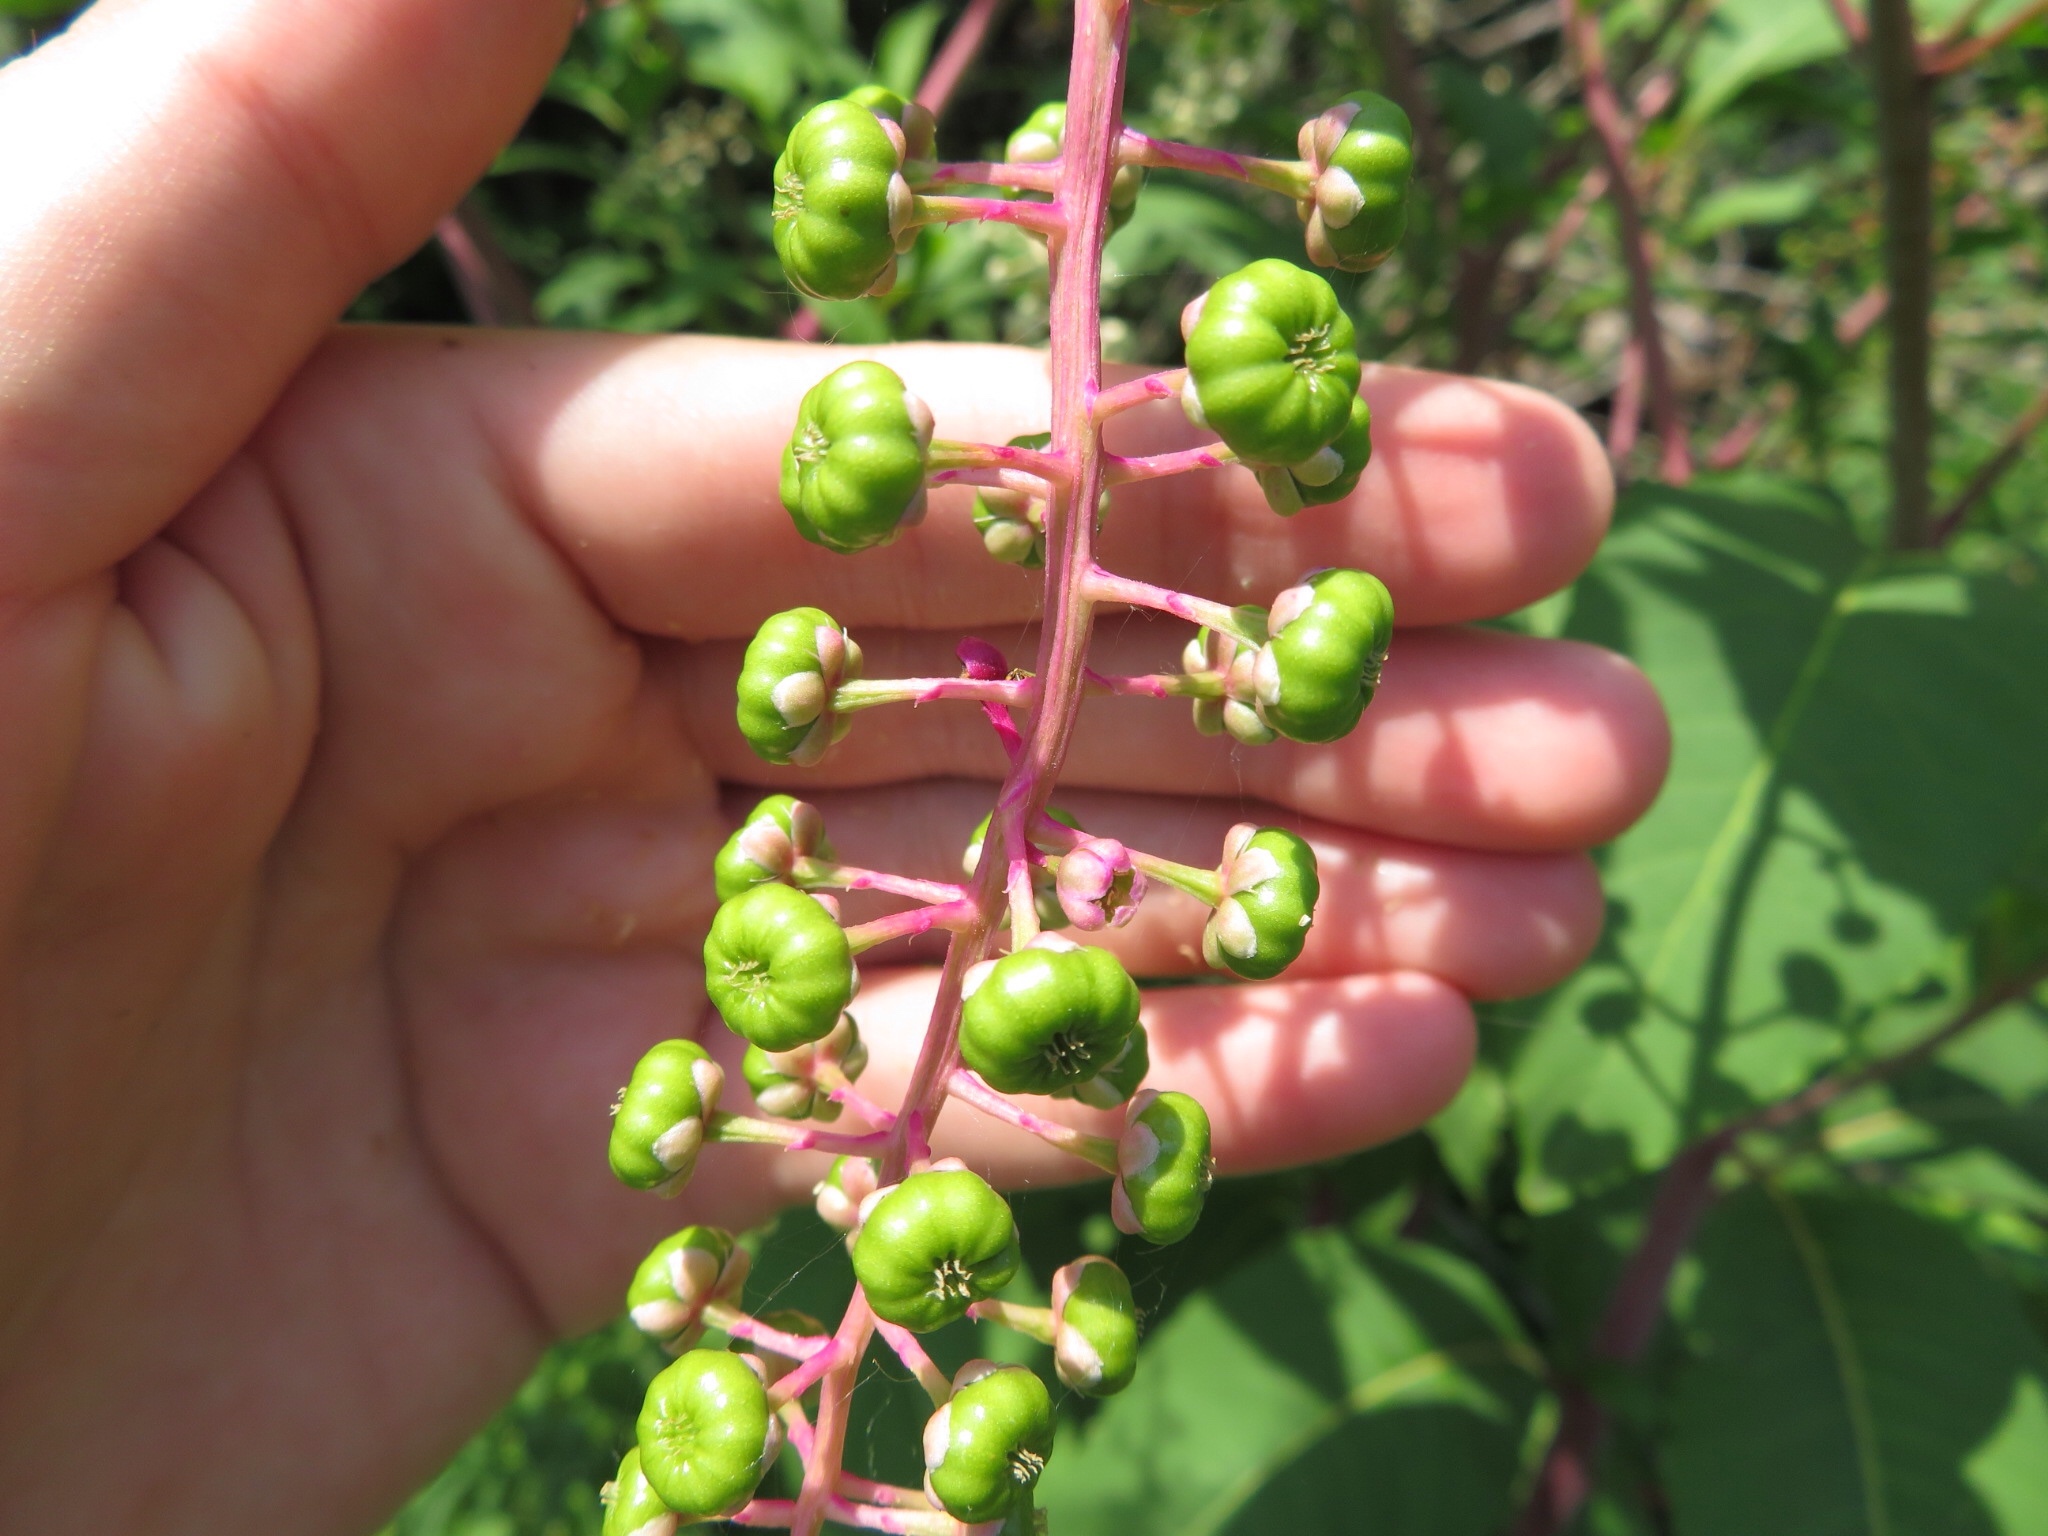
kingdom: Plantae
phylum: Tracheophyta
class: Magnoliopsida
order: Caryophyllales
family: Phytolaccaceae
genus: Phytolacca
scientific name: Phytolacca americana
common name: American pokeweed
